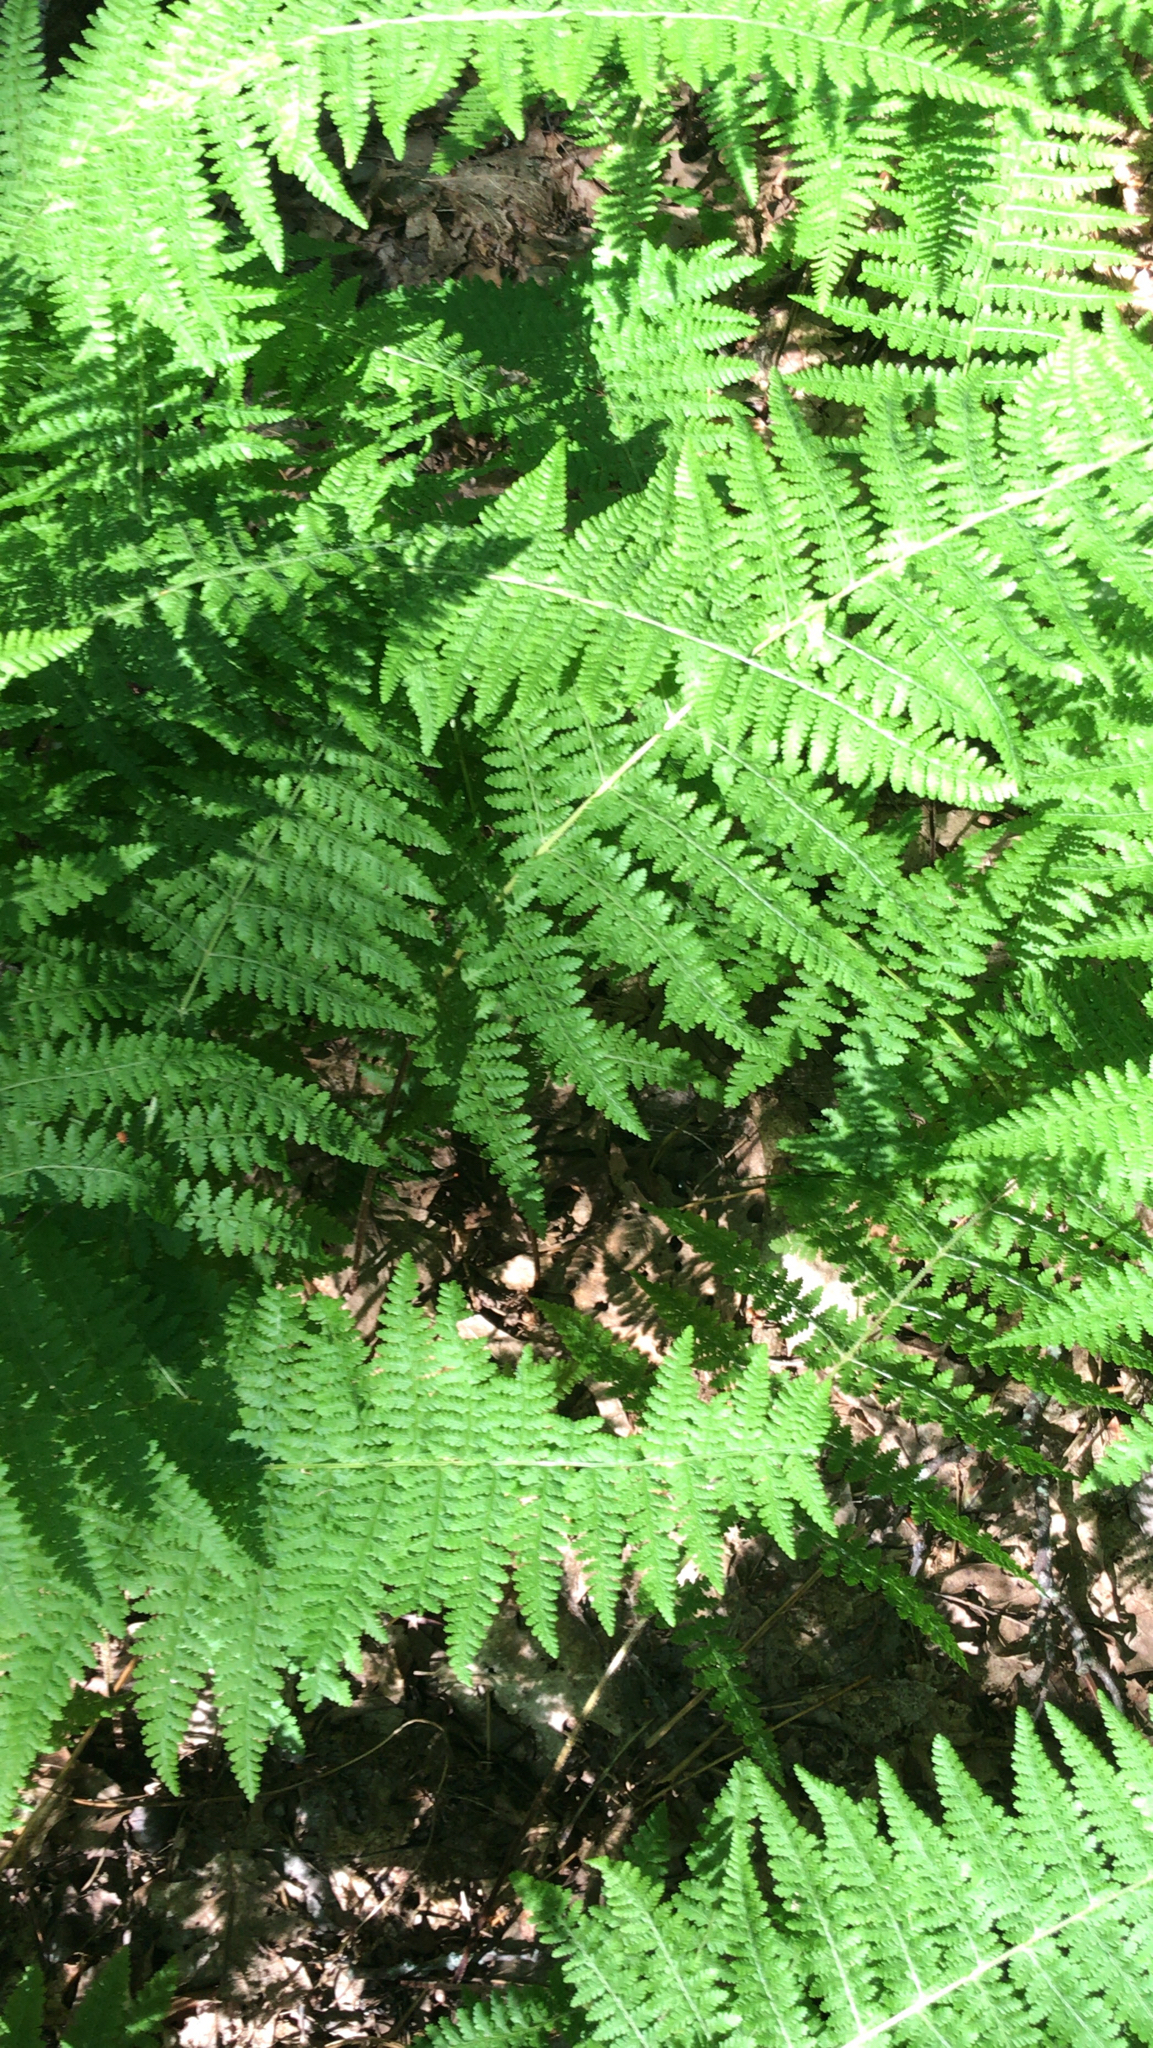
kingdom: Plantae
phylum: Tracheophyta
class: Polypodiopsida
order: Polypodiales
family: Dennstaedtiaceae
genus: Sitobolium
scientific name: Sitobolium punctilobum
